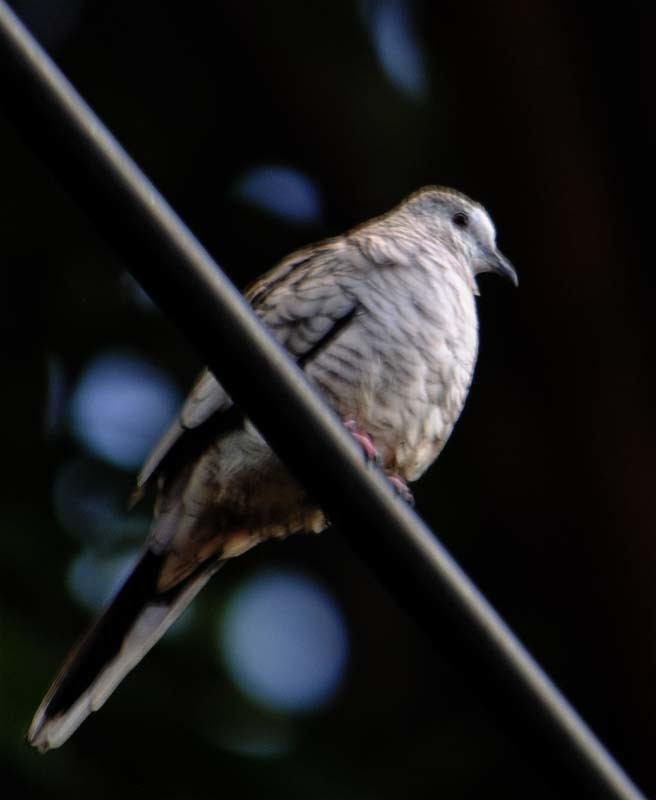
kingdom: Animalia
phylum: Chordata
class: Aves
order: Columbiformes
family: Columbidae
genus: Columbina
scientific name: Columbina inca
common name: Inca dove
